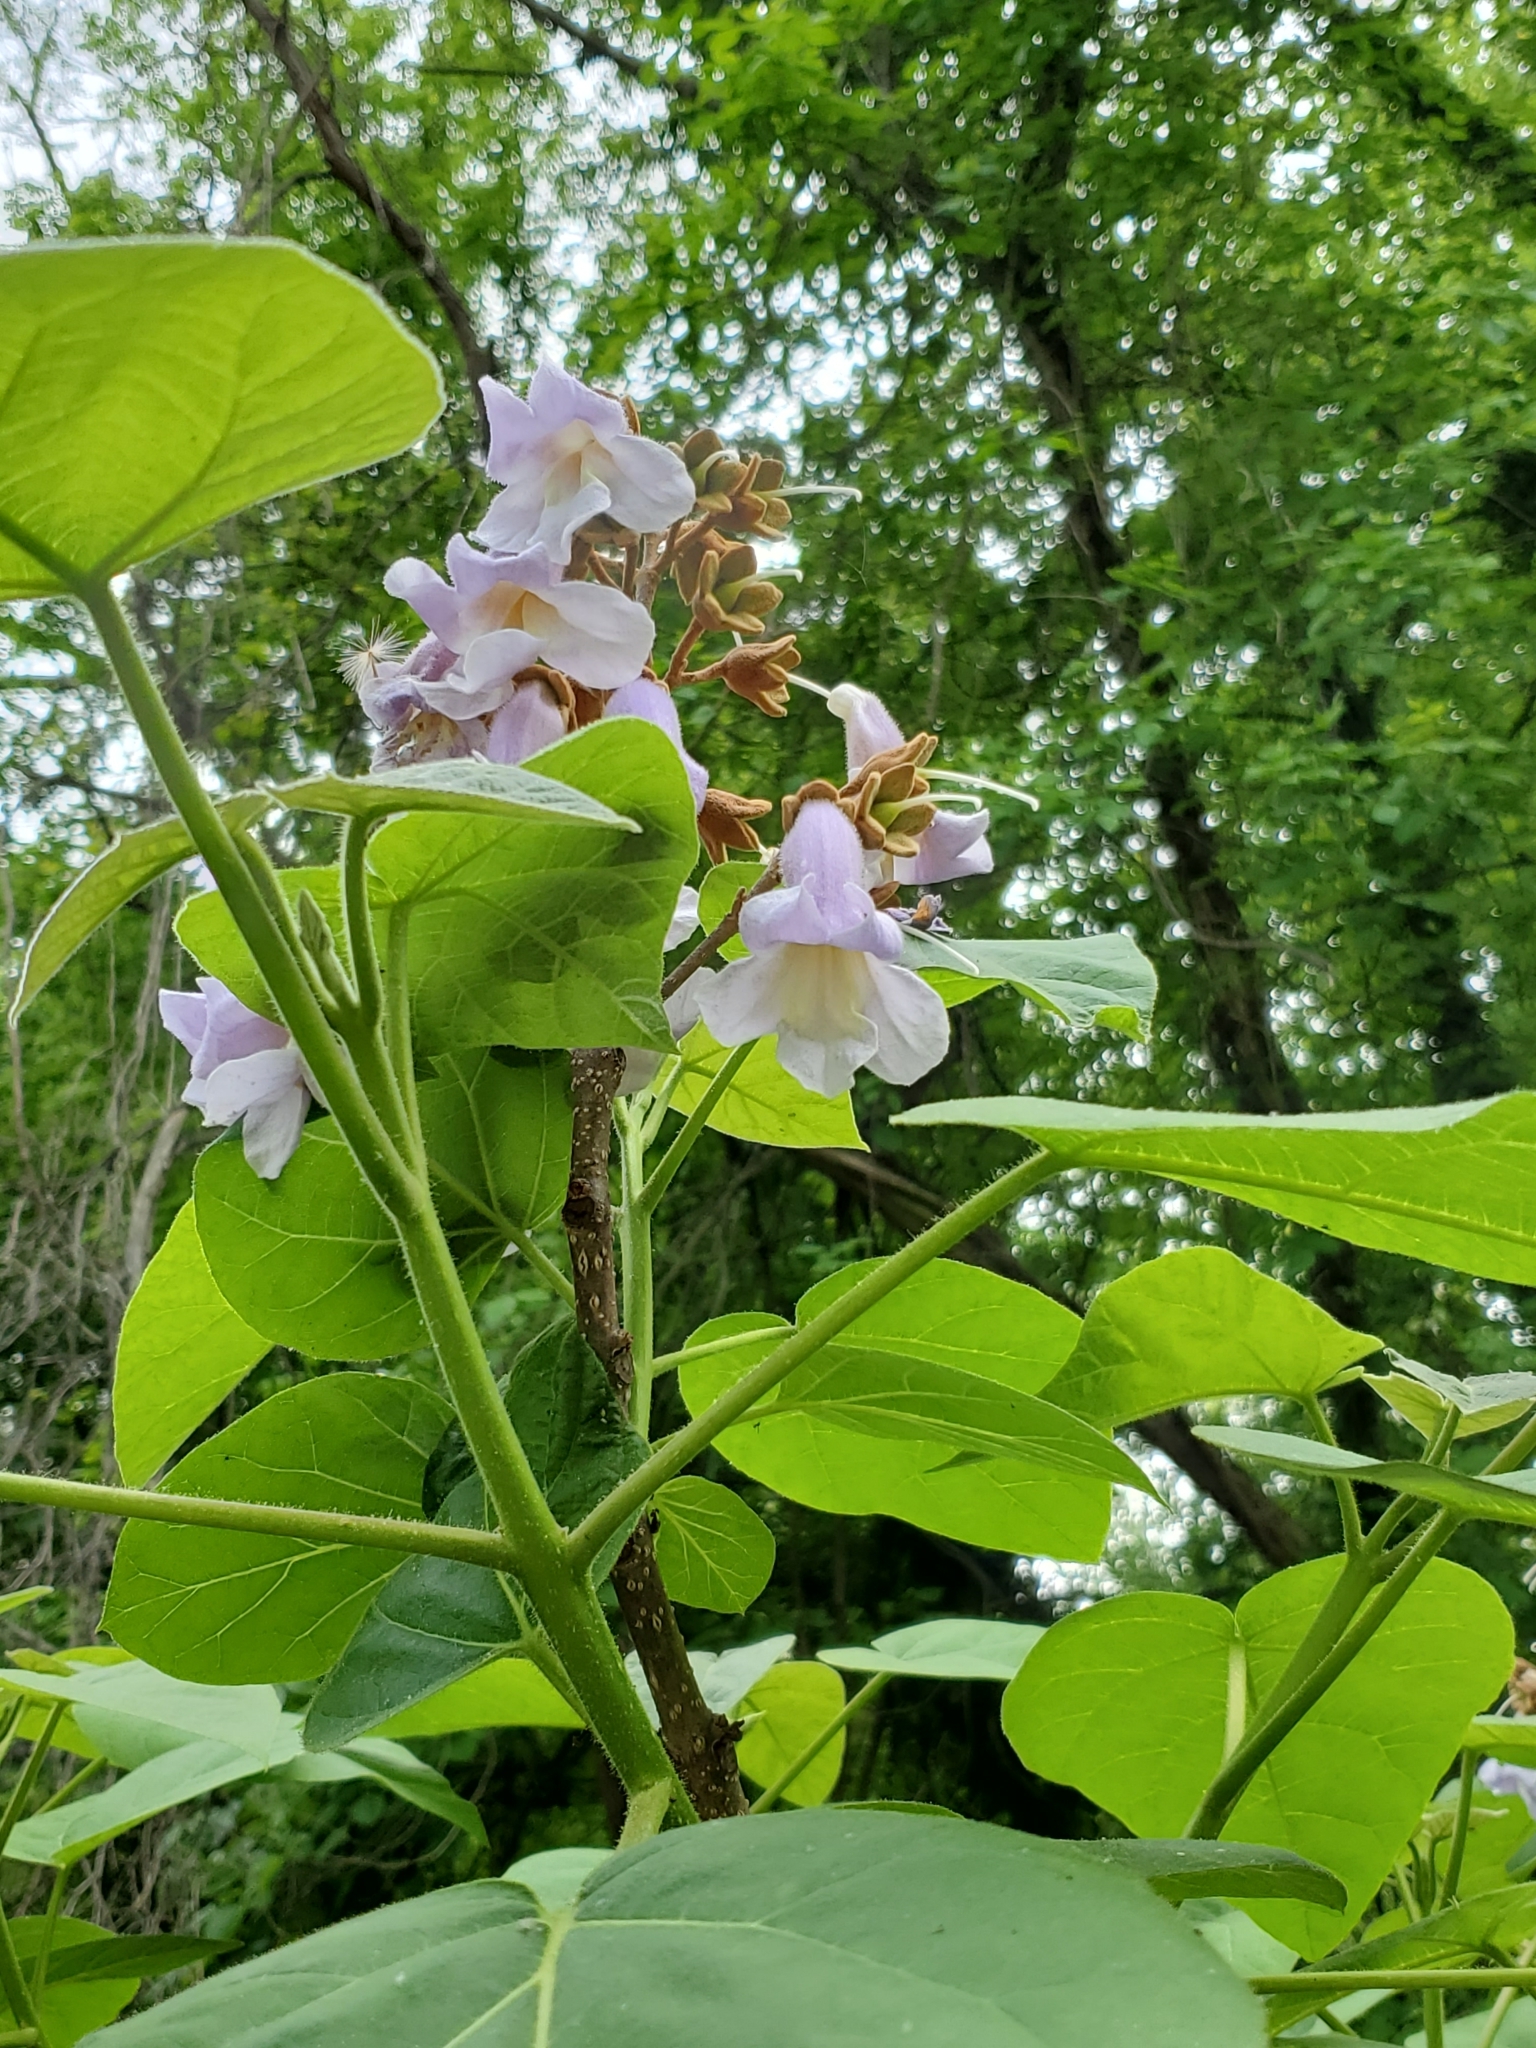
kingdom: Plantae
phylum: Tracheophyta
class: Magnoliopsida
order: Lamiales
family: Paulowniaceae
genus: Paulownia
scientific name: Paulownia tomentosa
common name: Foxglove-tree
